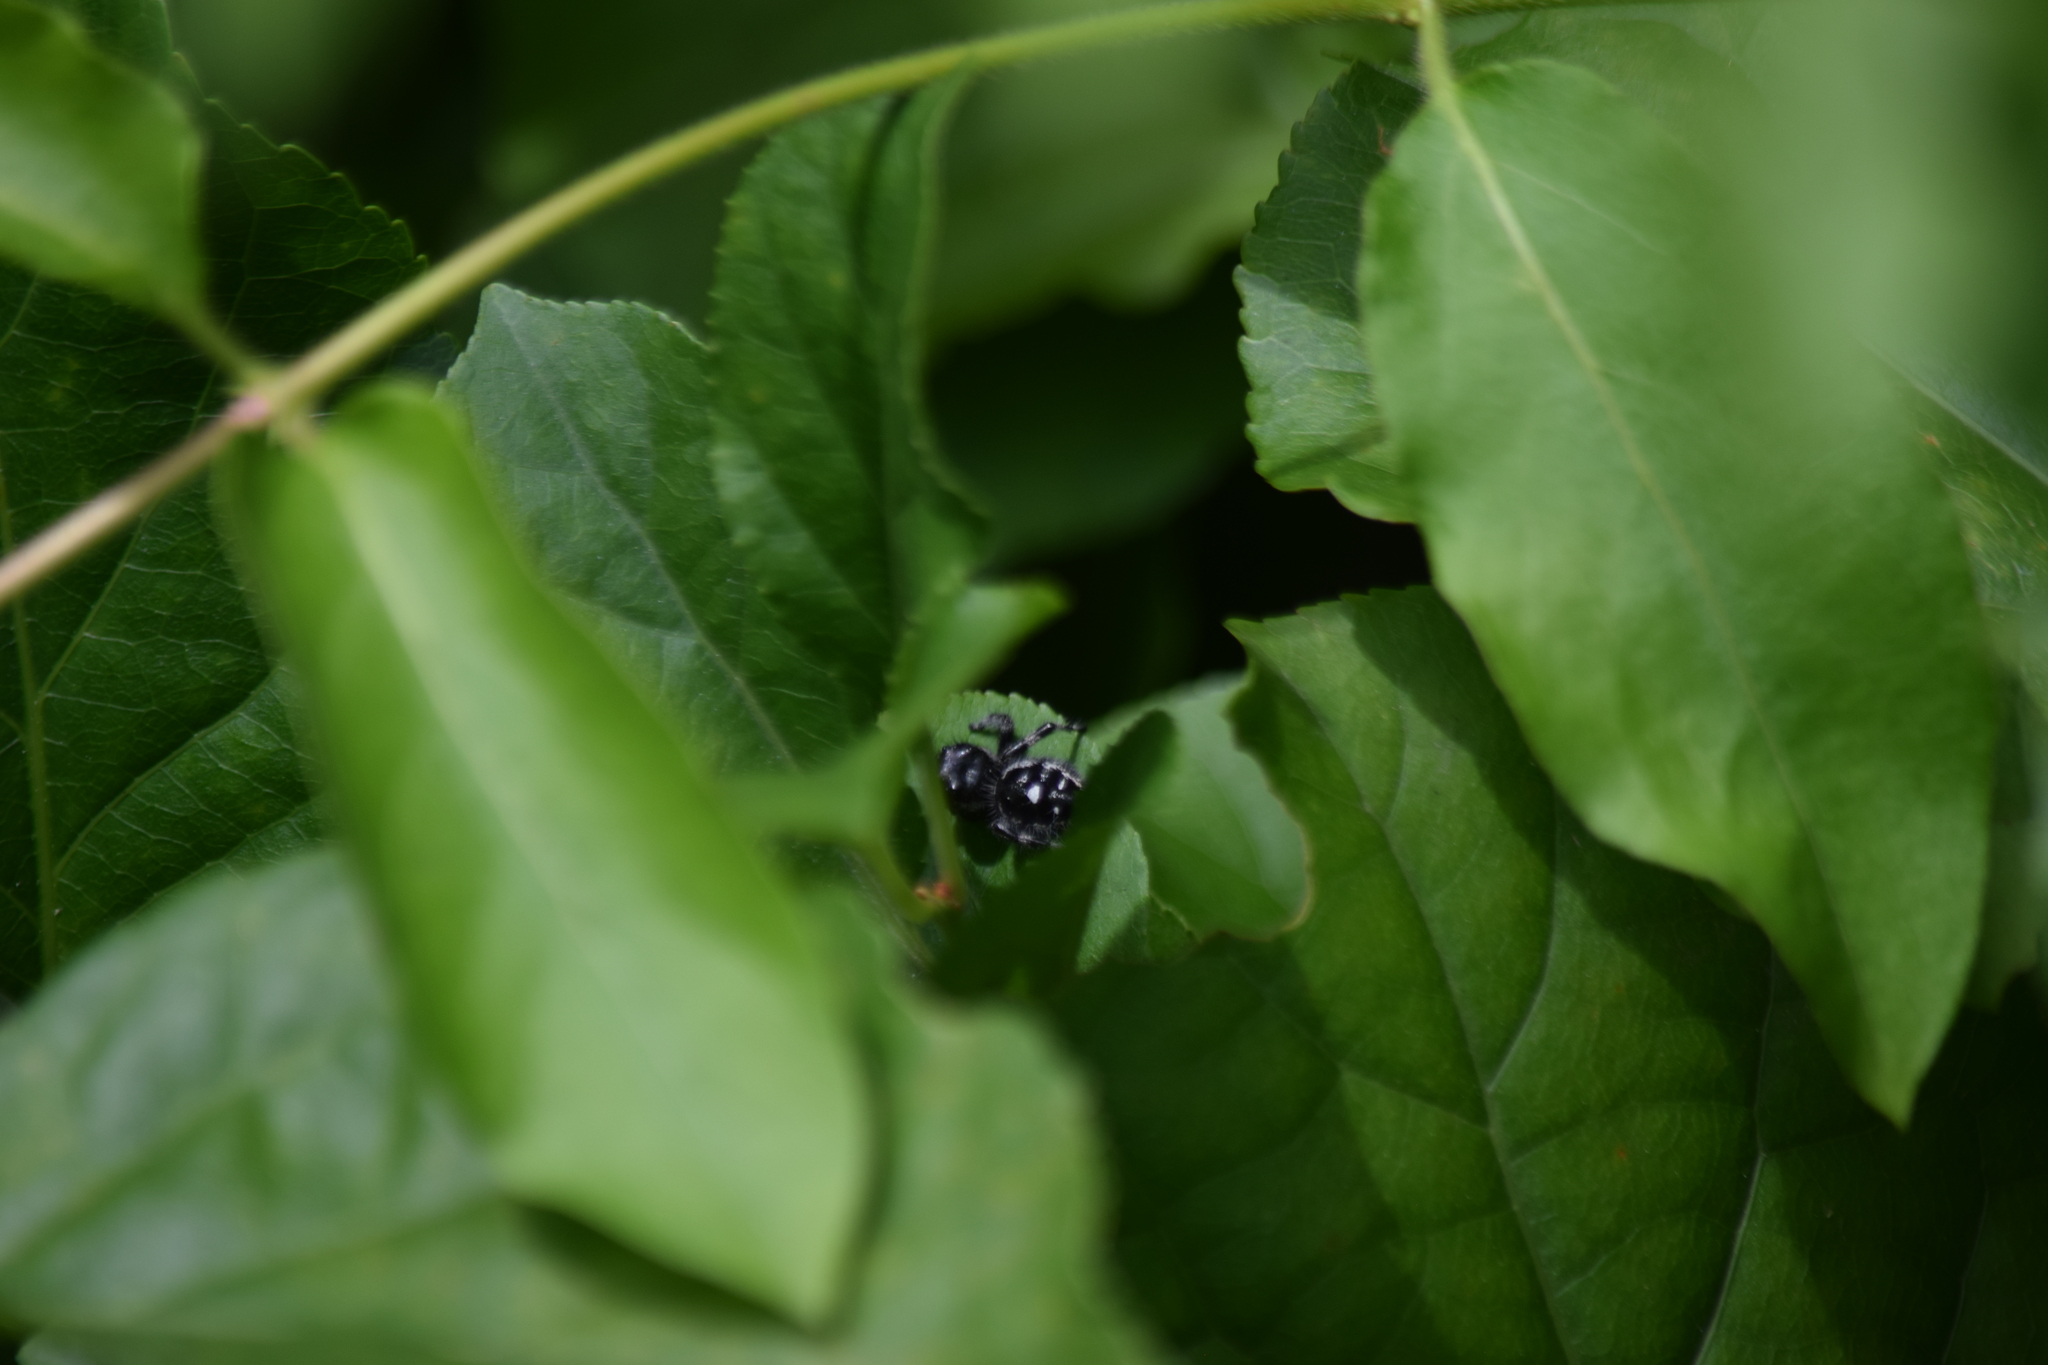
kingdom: Animalia
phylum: Arthropoda
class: Arachnida
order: Araneae
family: Salticidae
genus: Phidippus
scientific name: Phidippus audax
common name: Bold jumper
